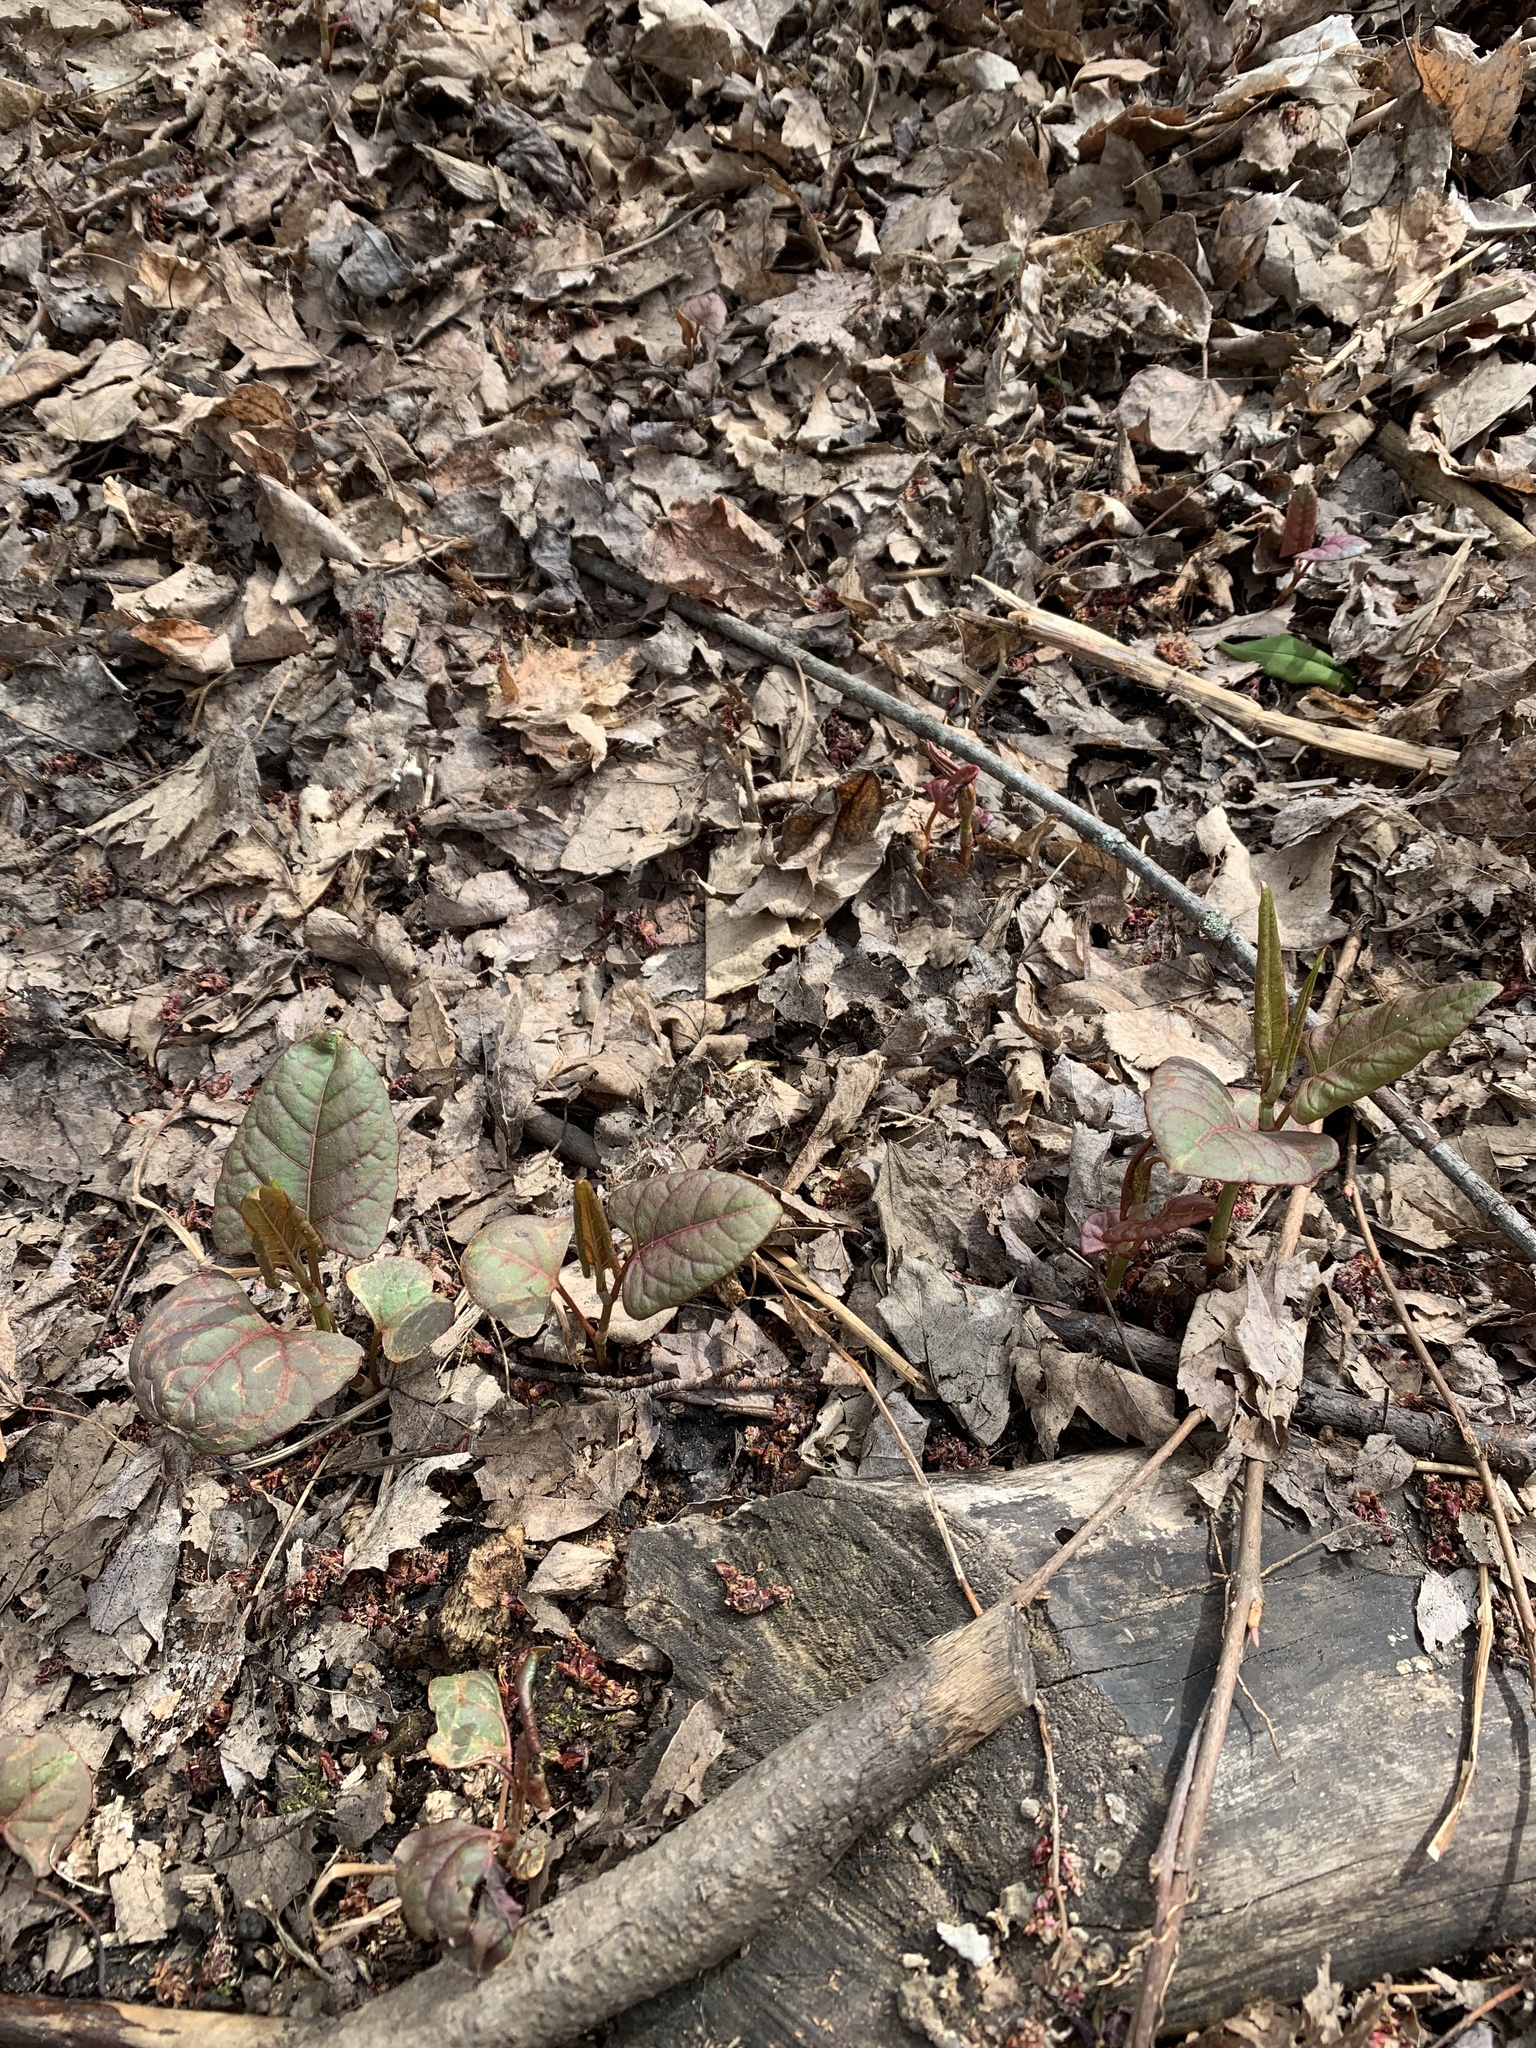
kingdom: Plantae
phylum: Tracheophyta
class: Magnoliopsida
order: Caryophyllales
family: Polygonaceae
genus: Reynoutria
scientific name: Reynoutria japonica
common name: Japanese knotweed
